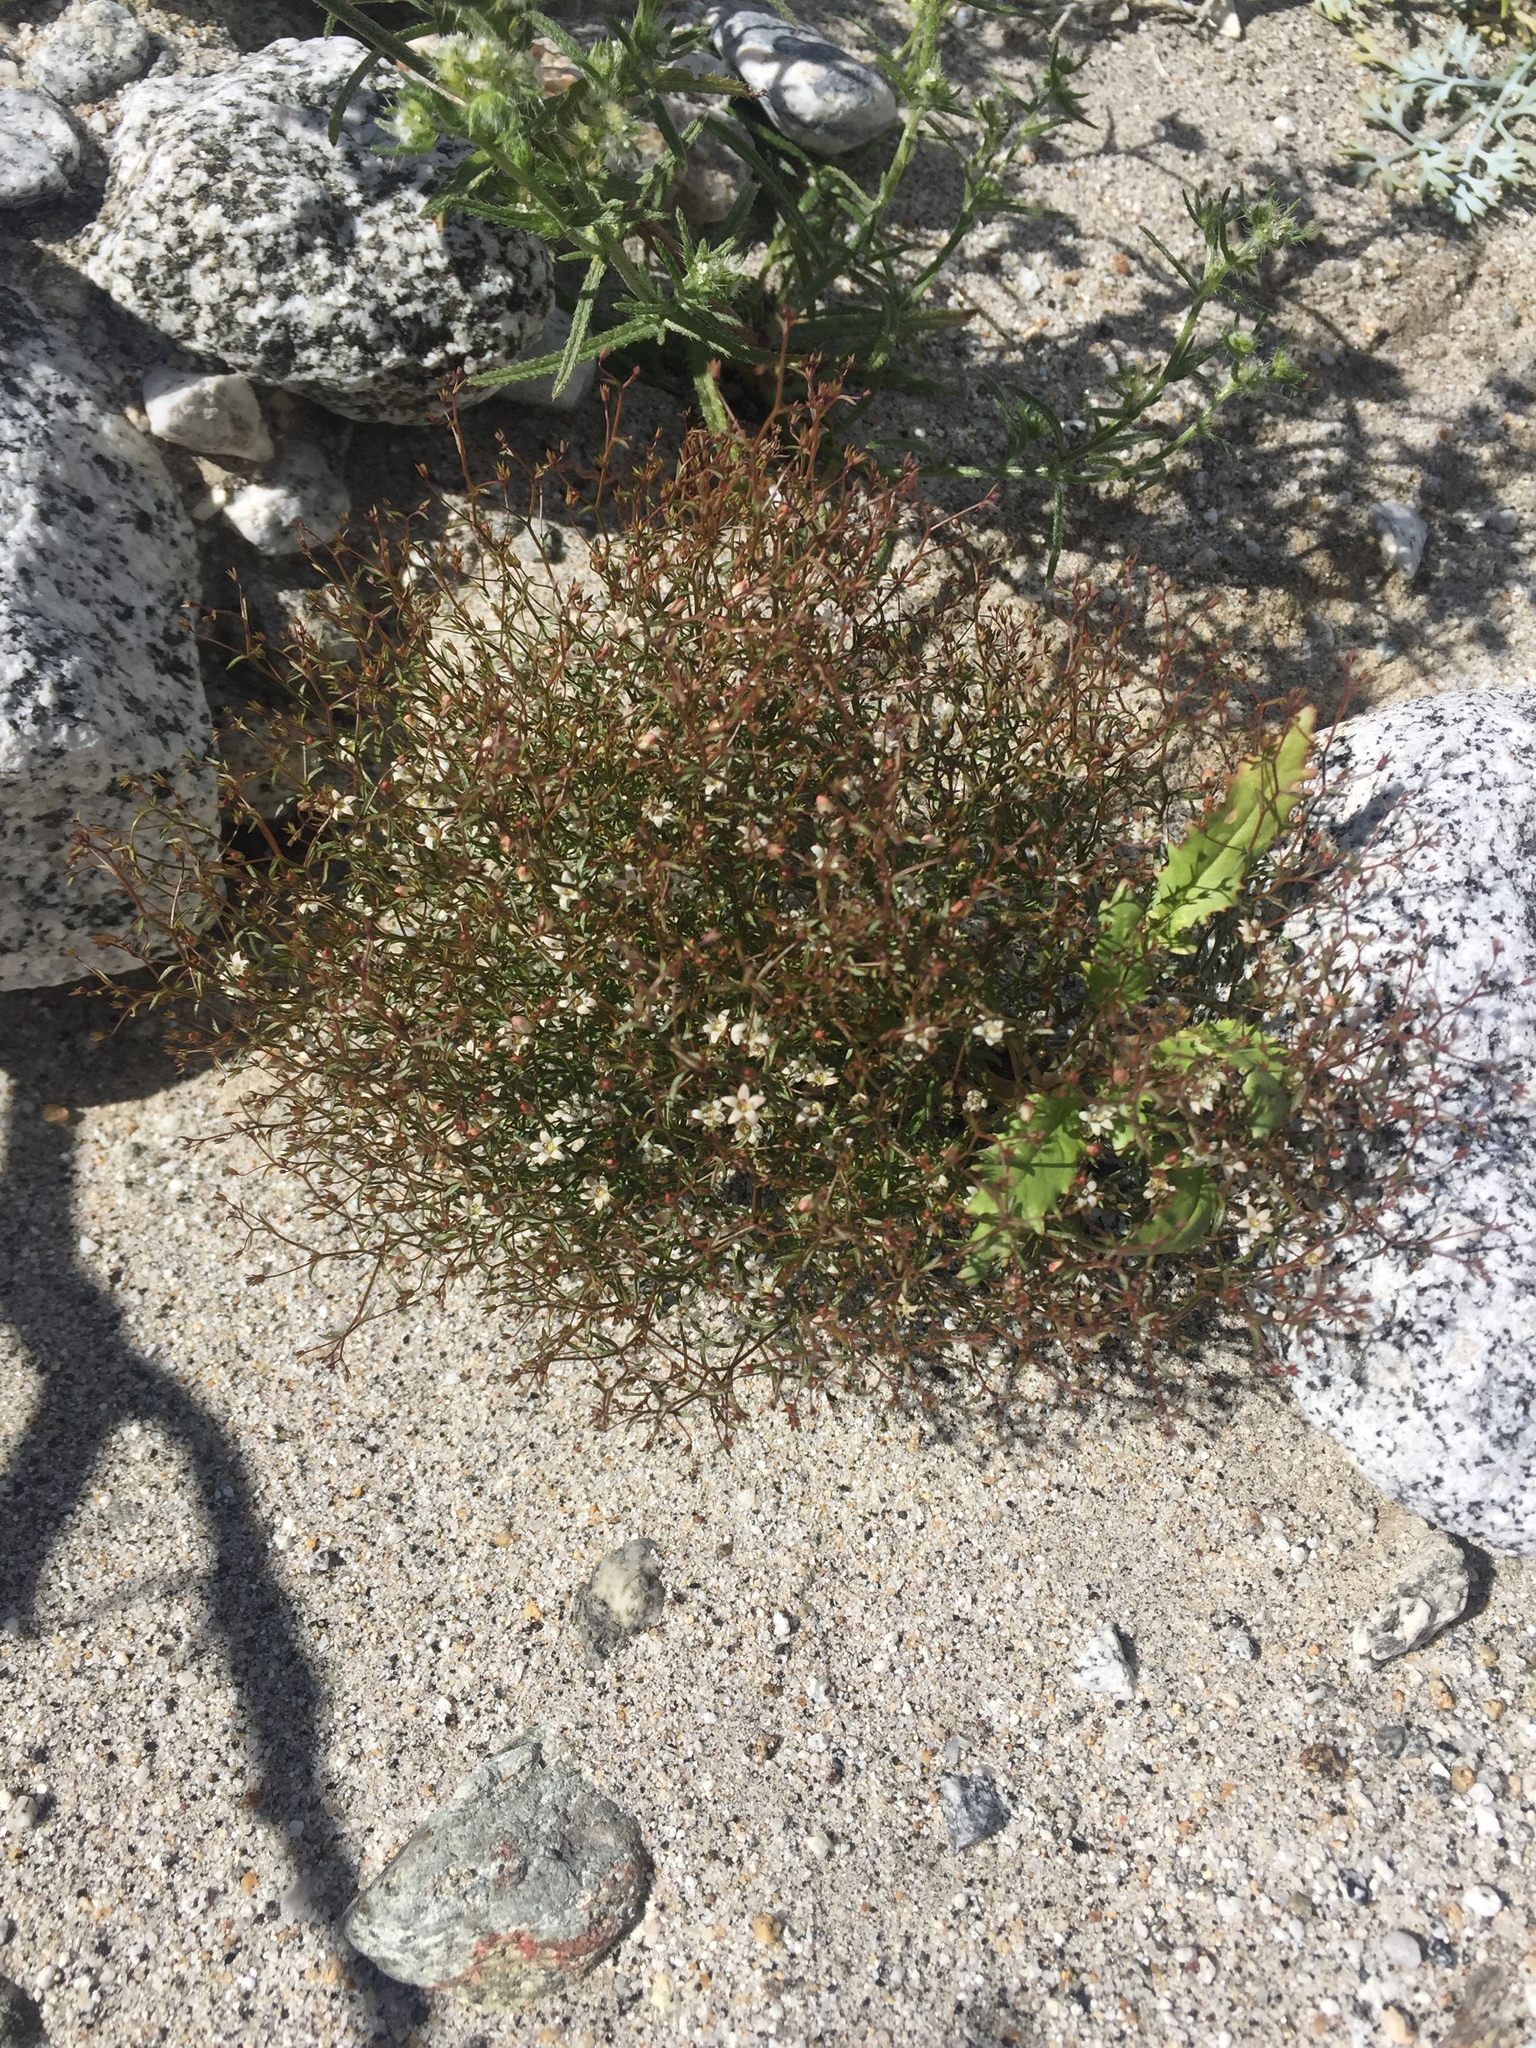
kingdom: Plantae
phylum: Tracheophyta
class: Magnoliopsida
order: Asterales
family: Campanulaceae
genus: Nemacladus
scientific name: Nemacladus glanduliferus
